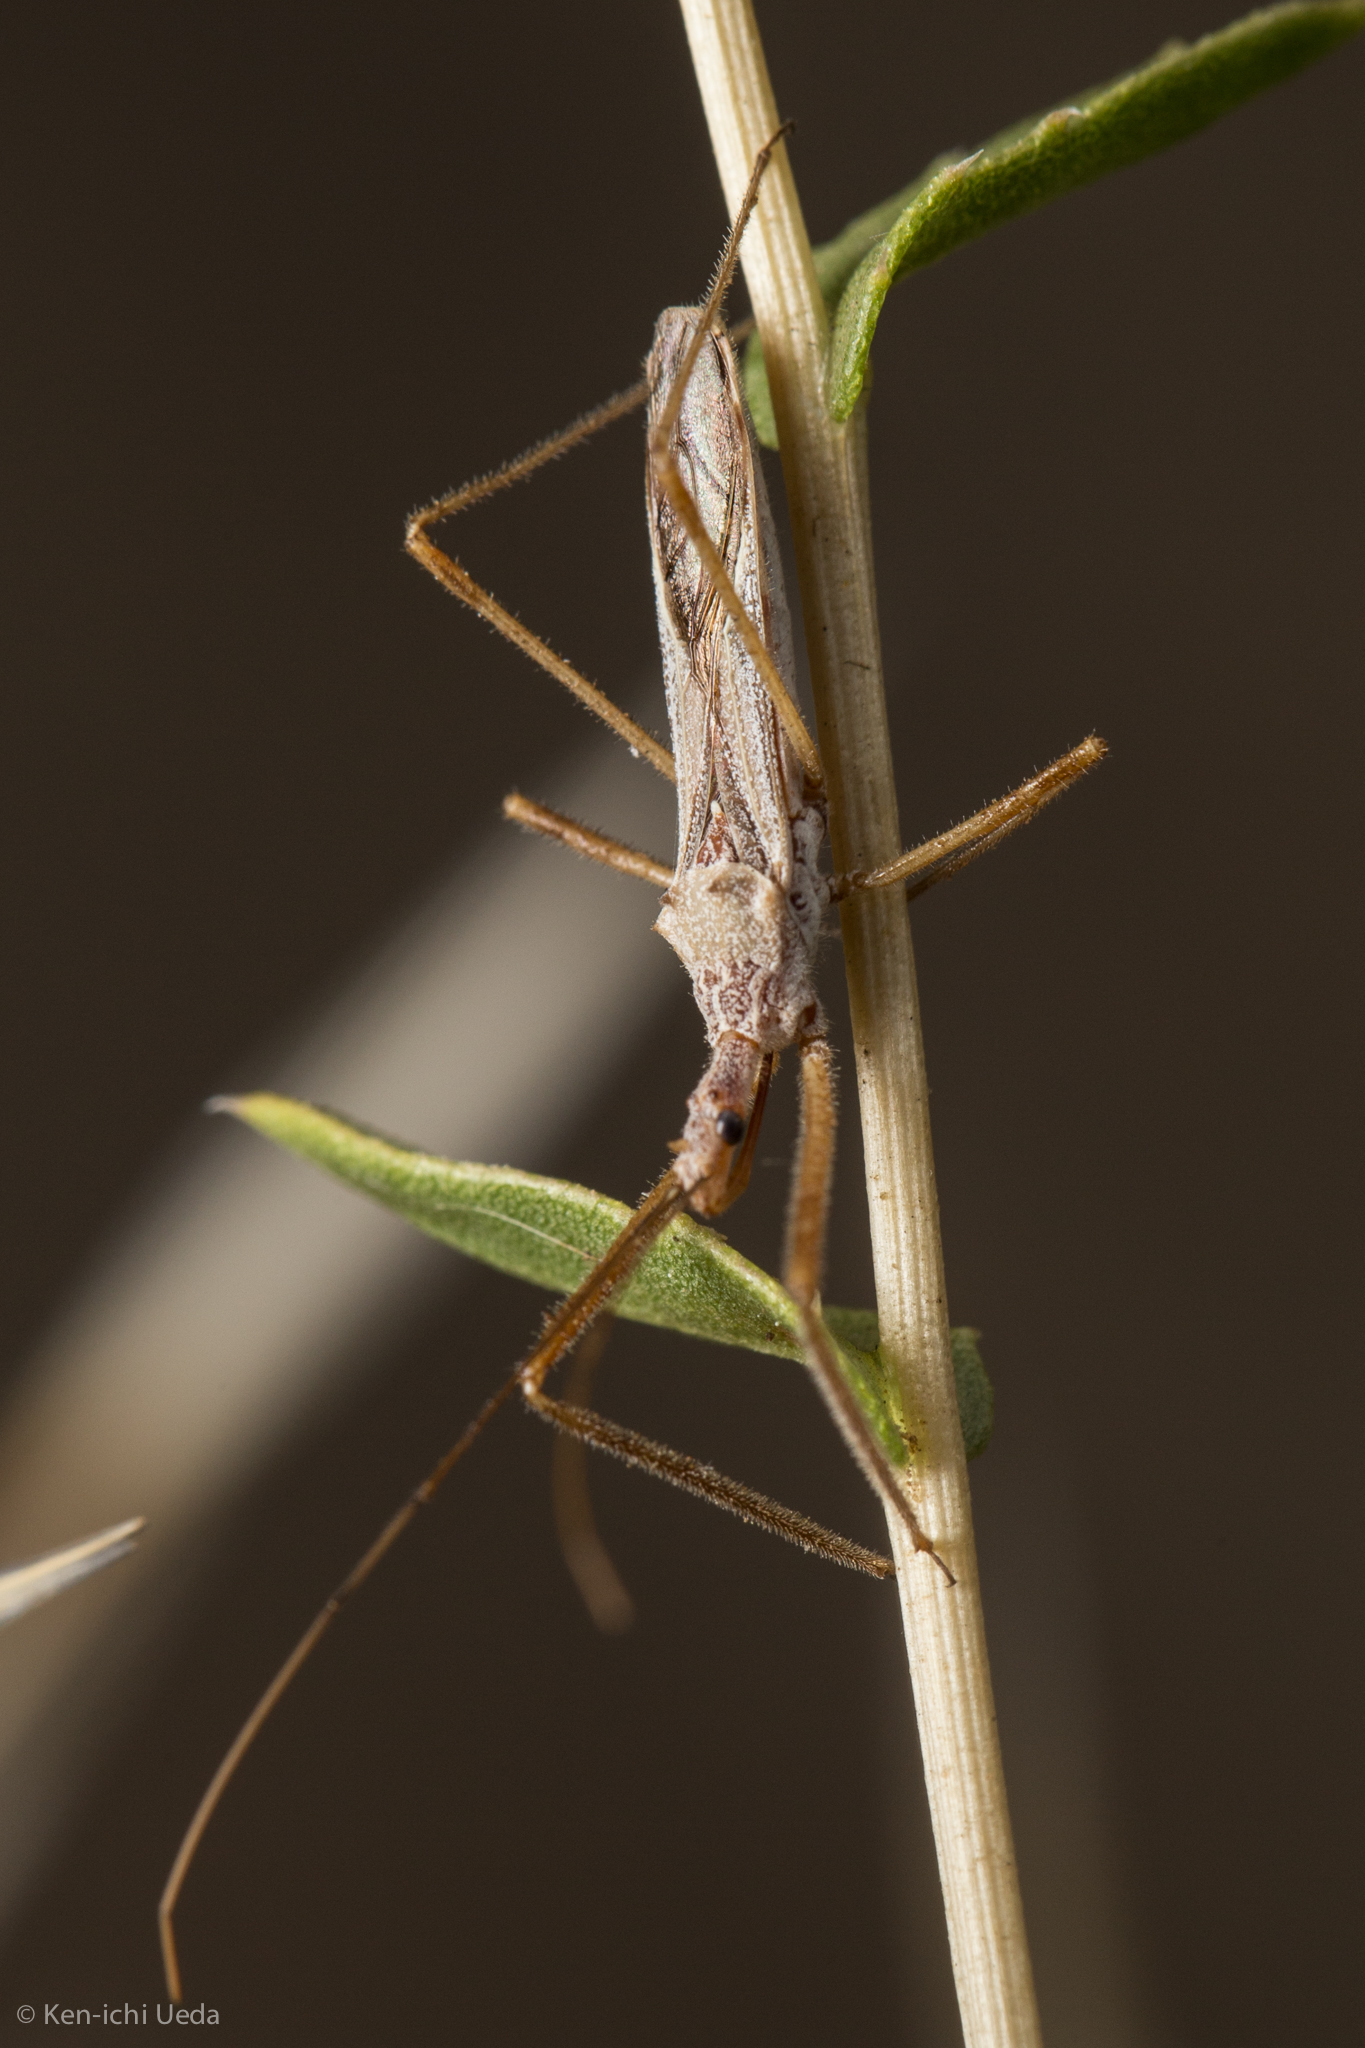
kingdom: Animalia
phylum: Arthropoda
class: Insecta
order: Hemiptera
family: Reduviidae
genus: Zelus
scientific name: Zelus tetracanthus
